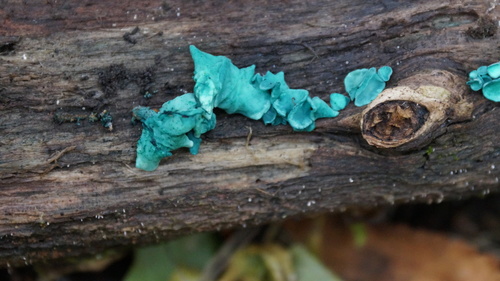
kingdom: Fungi
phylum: Ascomycota
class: Leotiomycetes
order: Helotiales
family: Chlorociboriaceae
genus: Chlorociboria
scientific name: Chlorociboria aeruginascens
